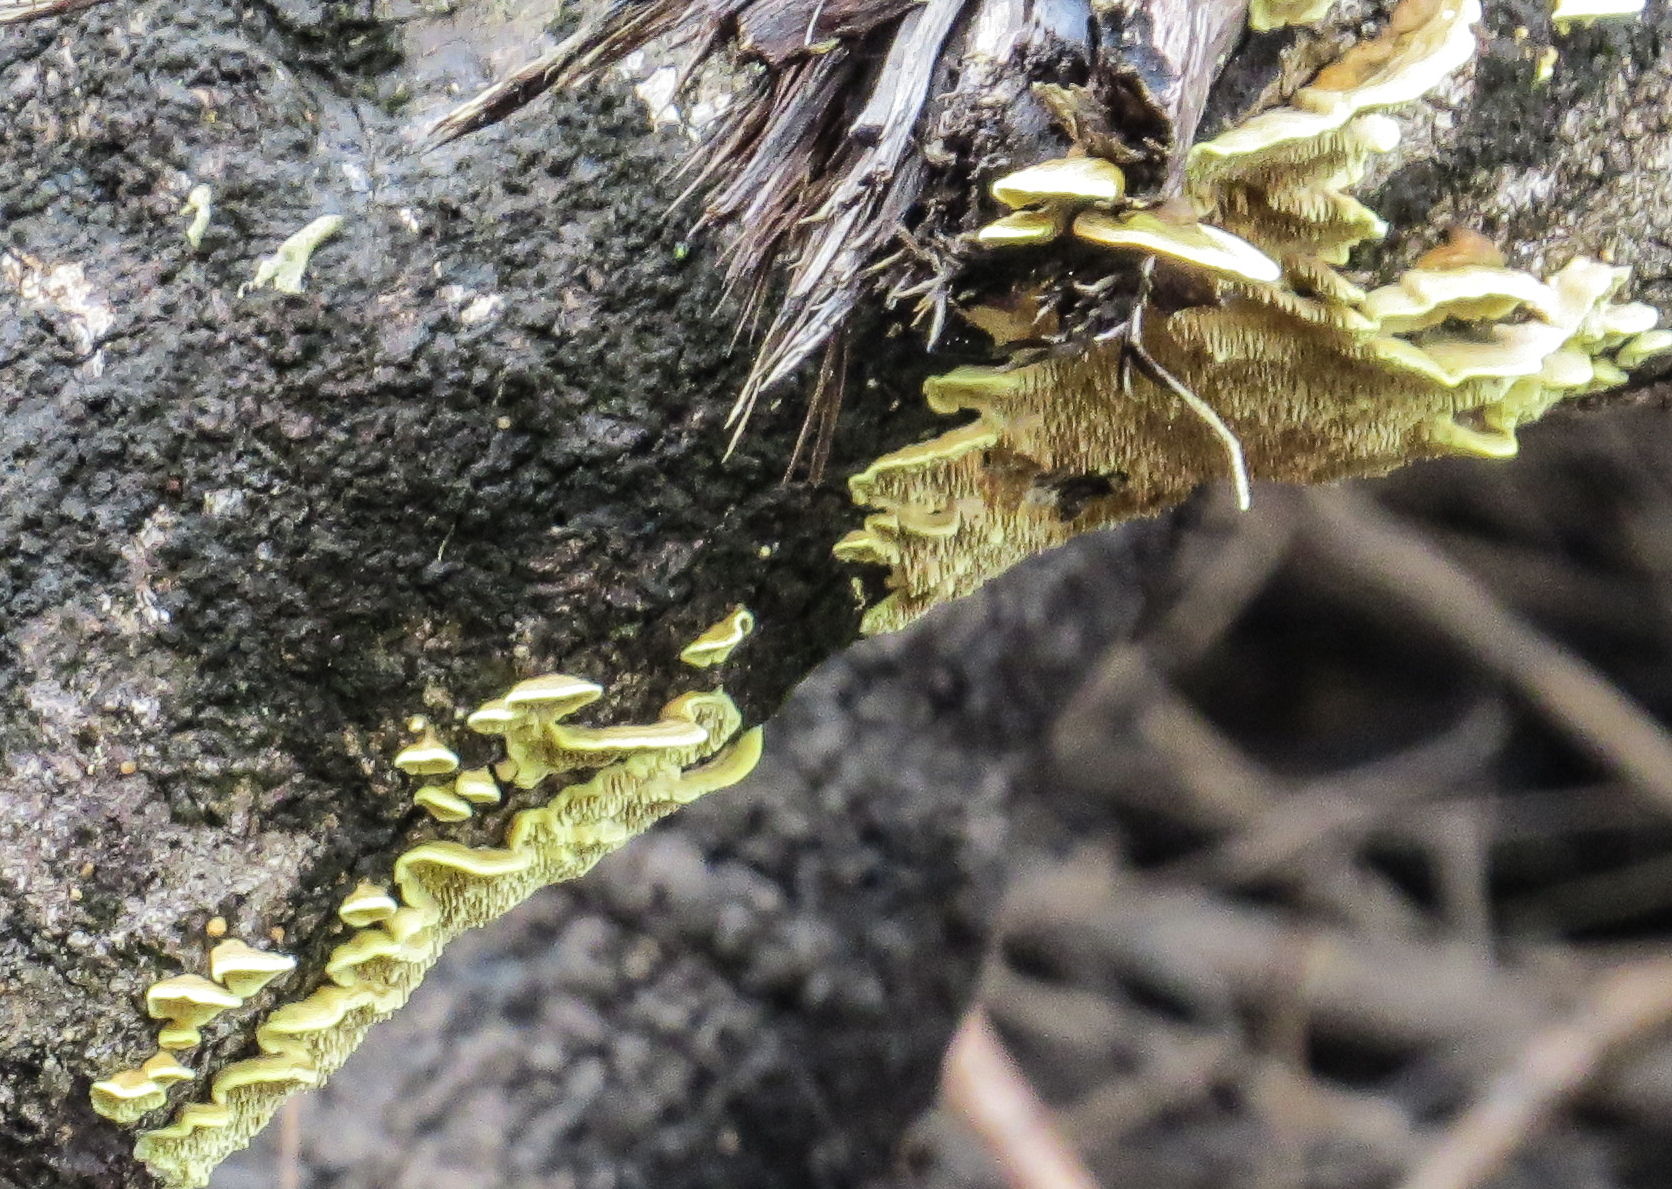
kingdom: Fungi
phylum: Basidiomycota
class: Agaricomycetes
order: Polyporales
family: Irpicaceae
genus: Flavodon
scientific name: Flavodon flavus
